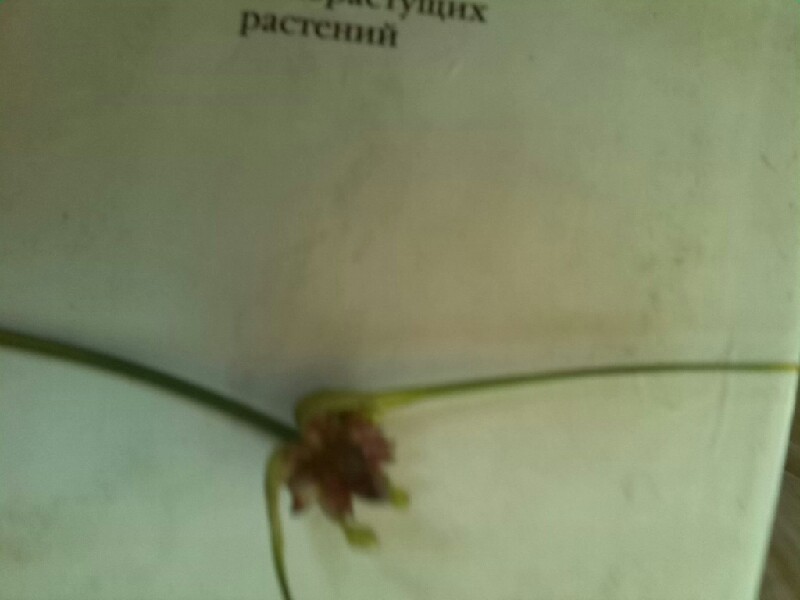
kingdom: Plantae
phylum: Tracheophyta
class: Liliopsida
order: Asparagales
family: Amaryllidaceae
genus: Allium
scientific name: Allium oleraceum
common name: Field garlic
